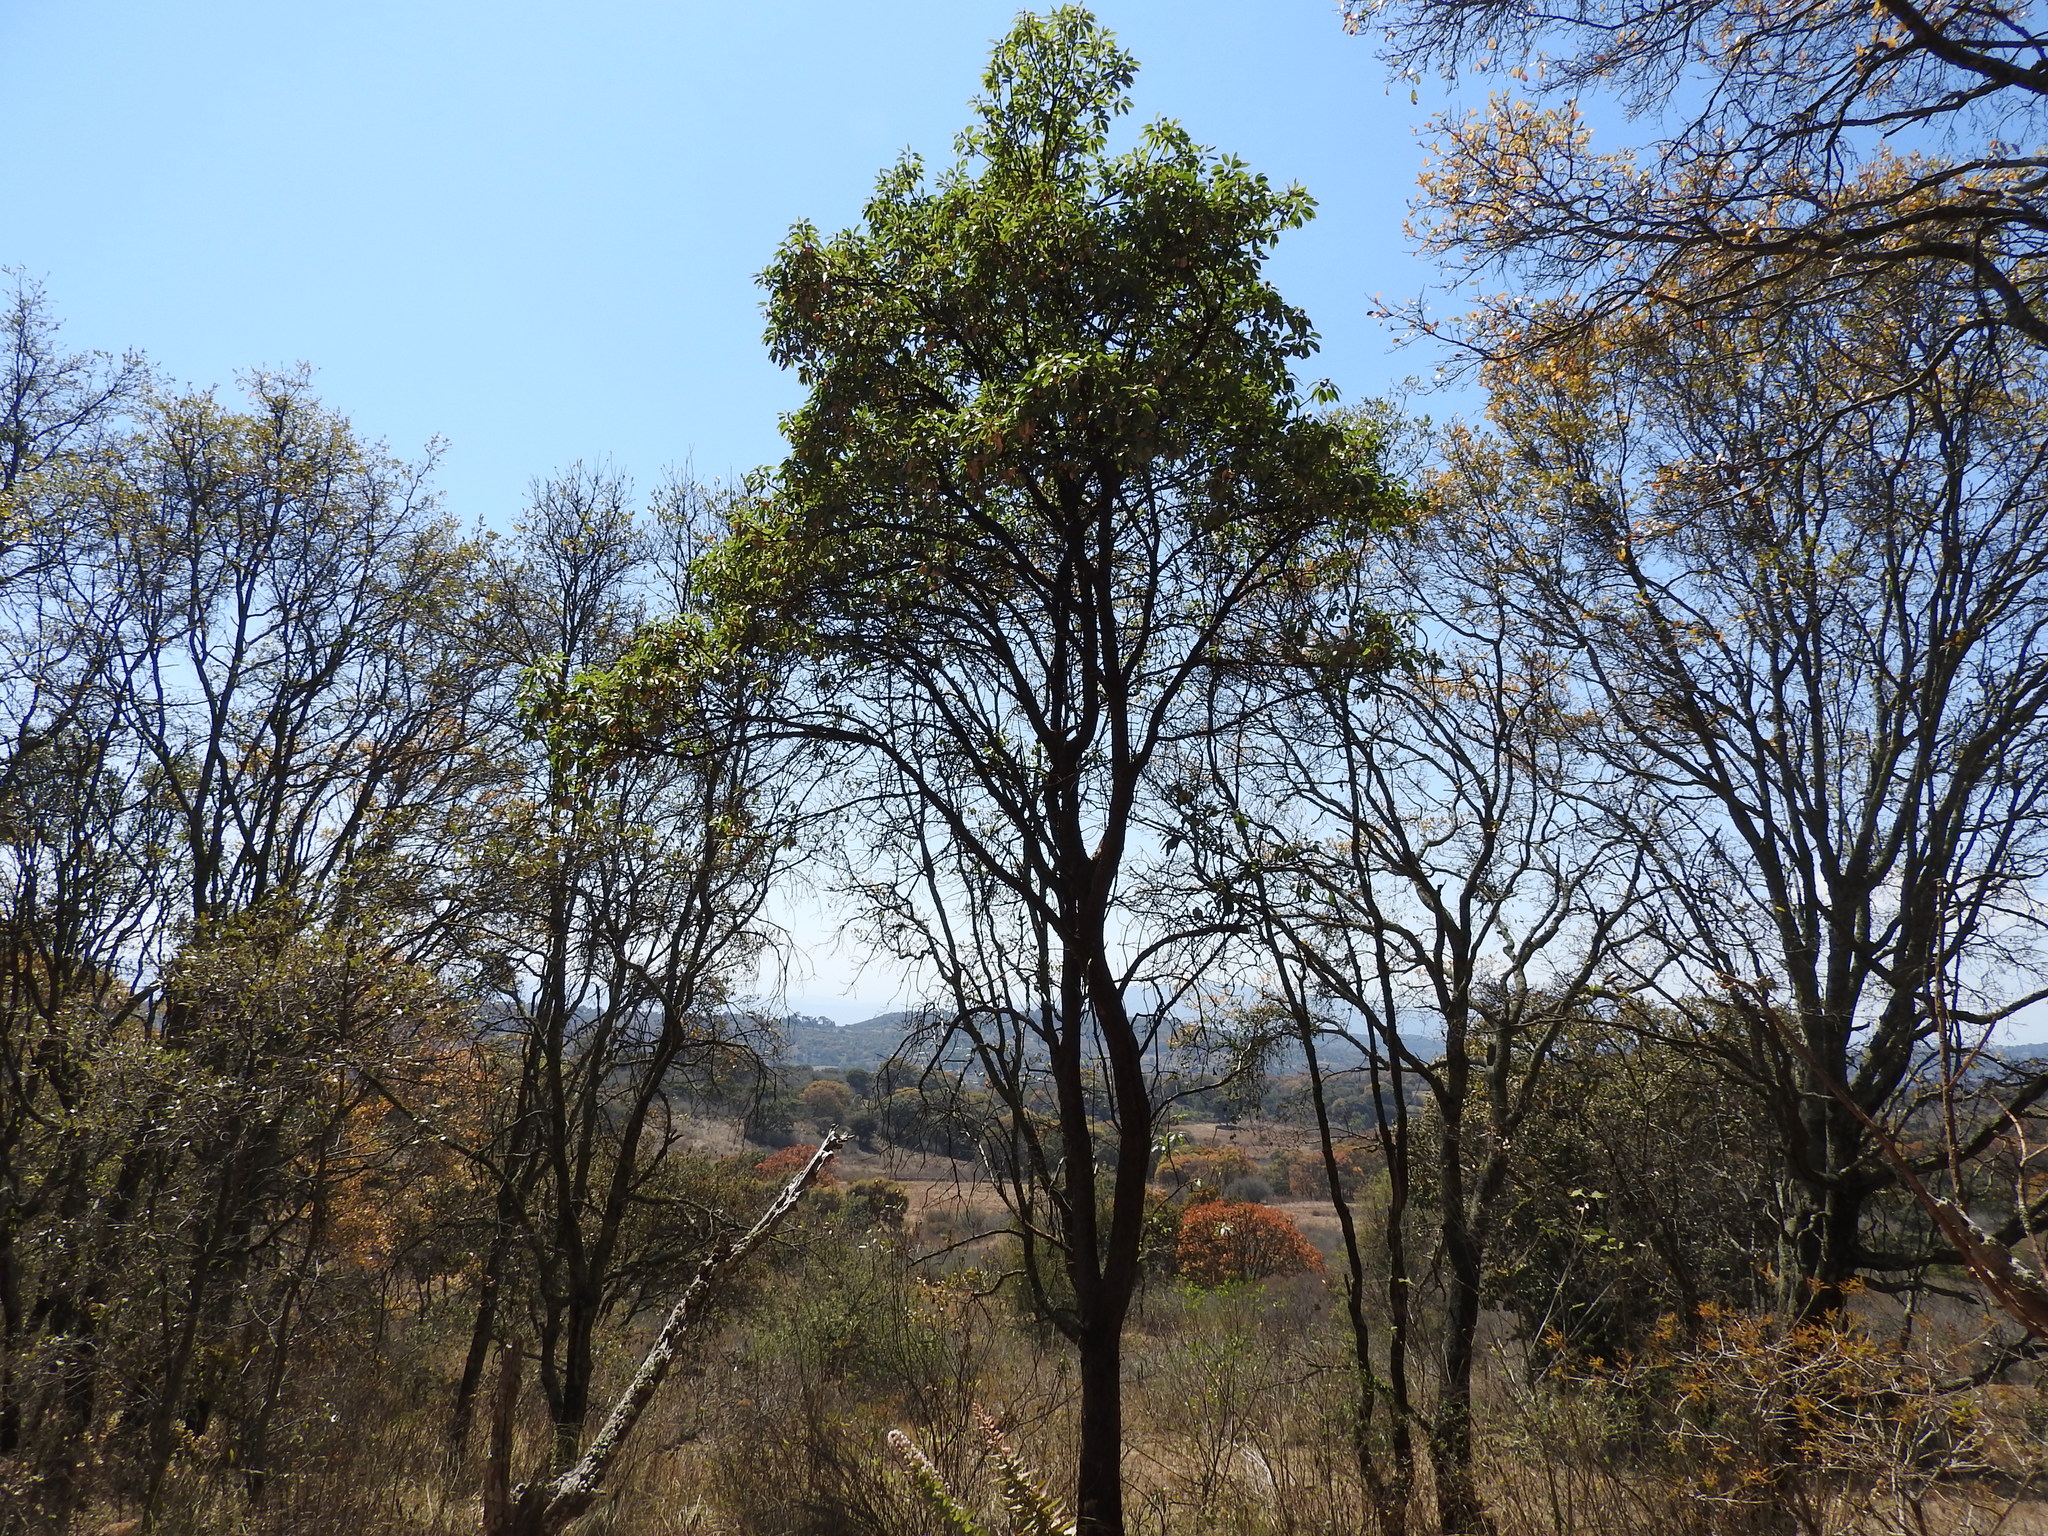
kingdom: Plantae
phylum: Tracheophyta
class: Magnoliopsida
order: Fagales
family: Fagaceae
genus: Quercus
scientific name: Quercus
